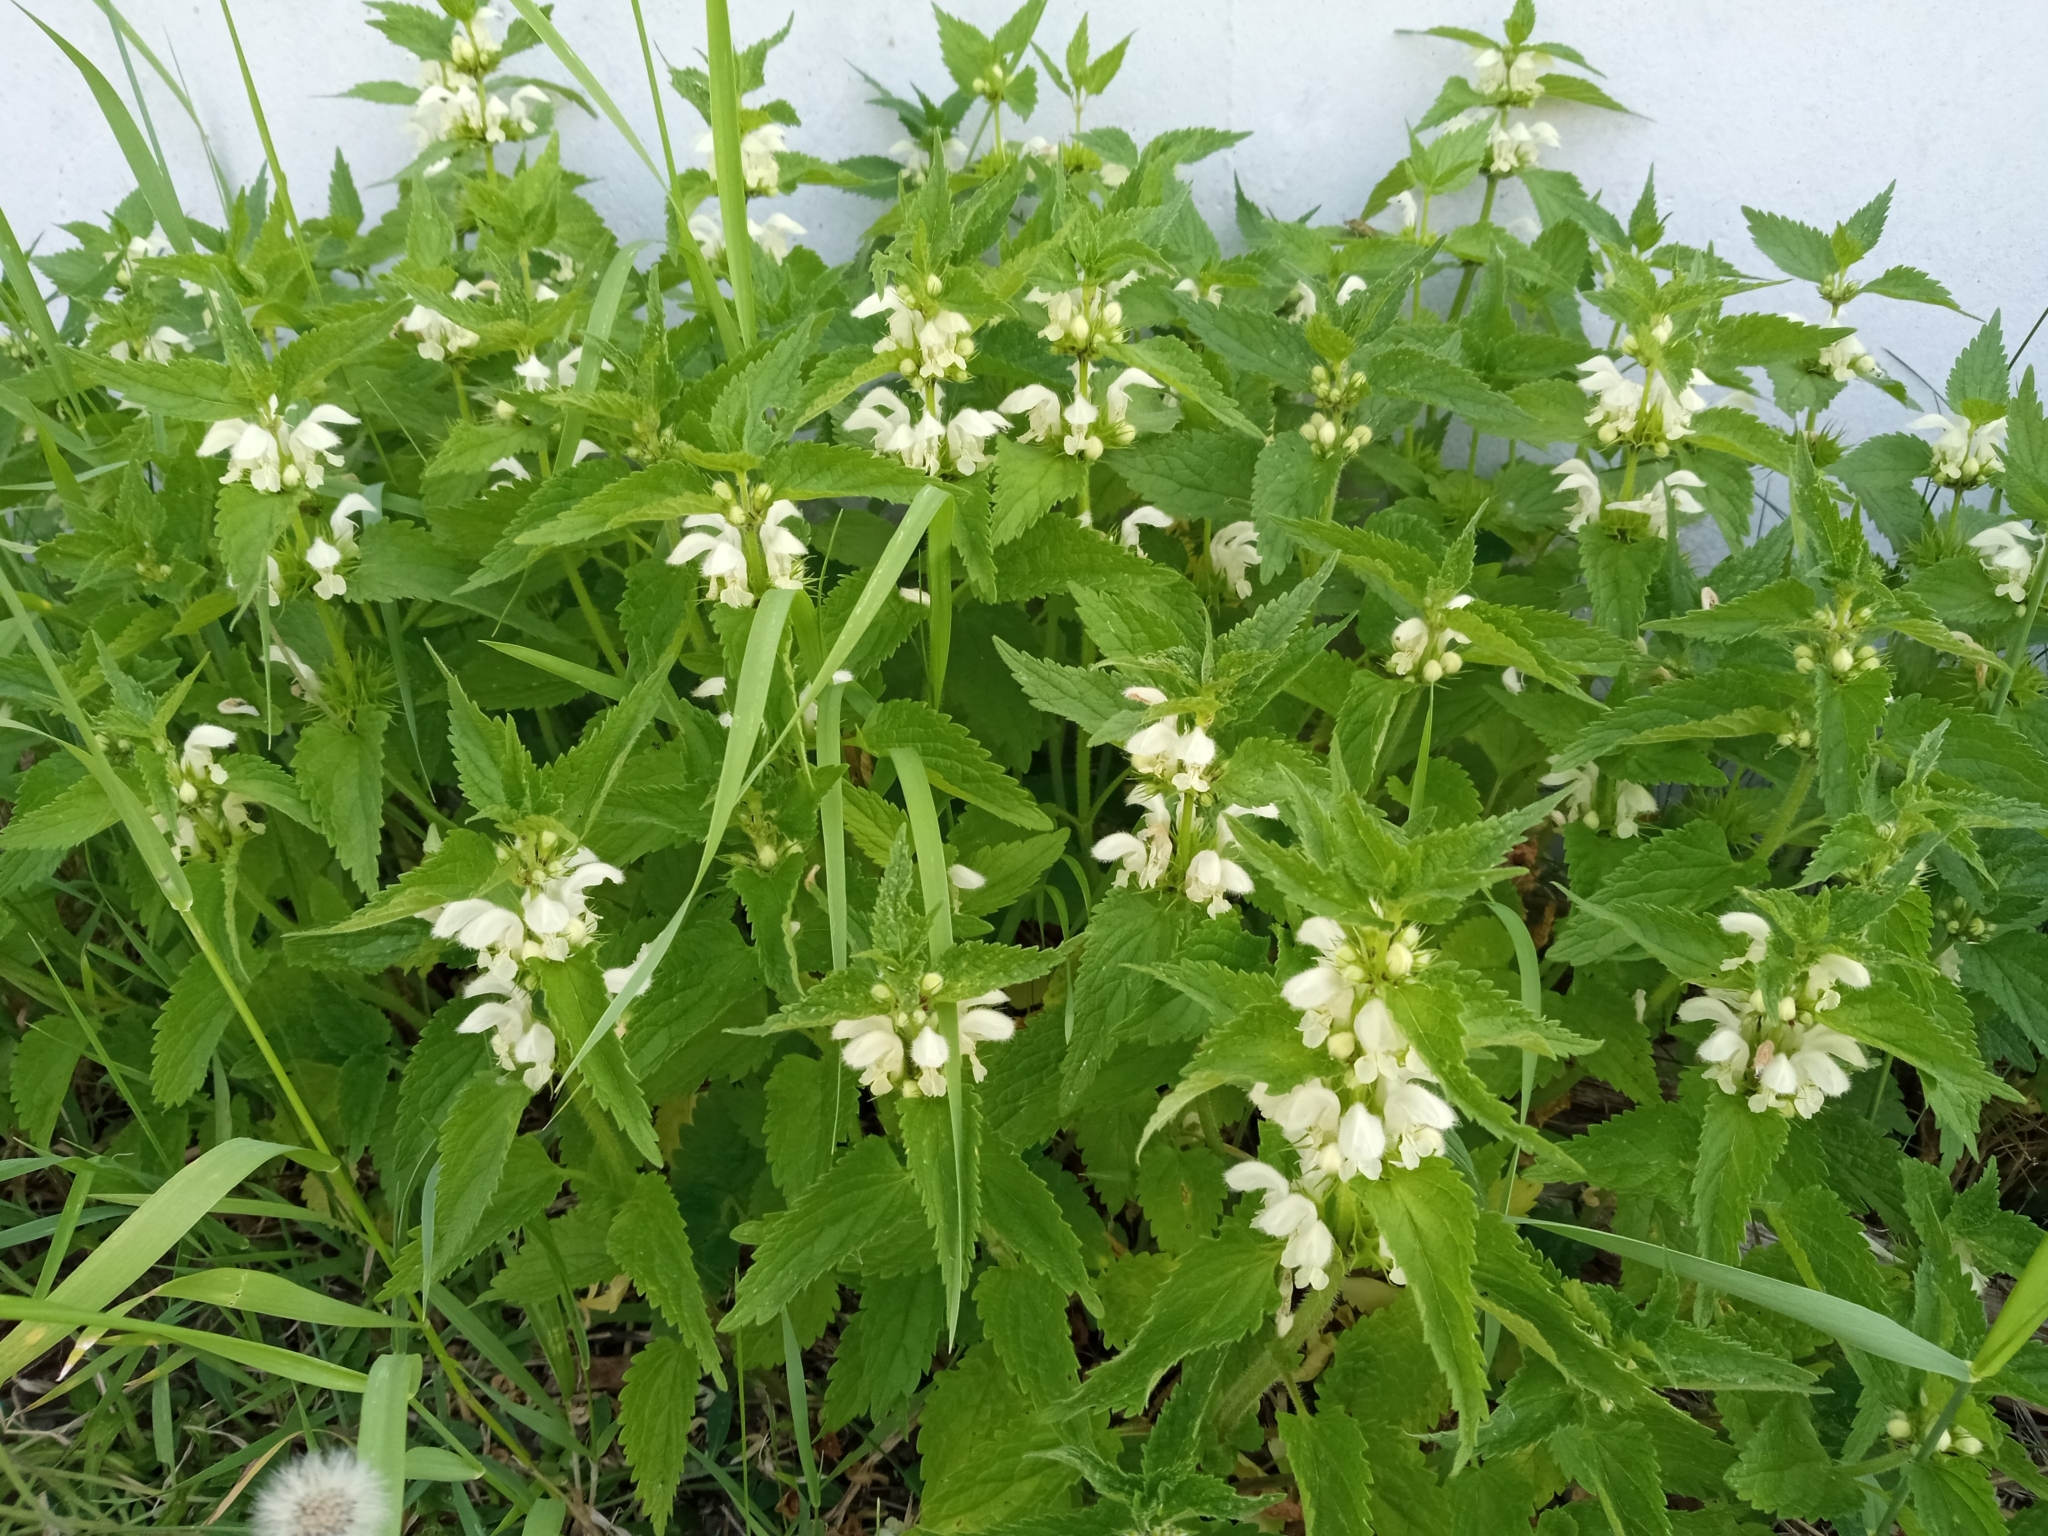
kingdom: Plantae
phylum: Tracheophyta
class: Magnoliopsida
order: Lamiales
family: Lamiaceae
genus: Lamium
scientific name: Lamium album
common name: White dead-nettle
